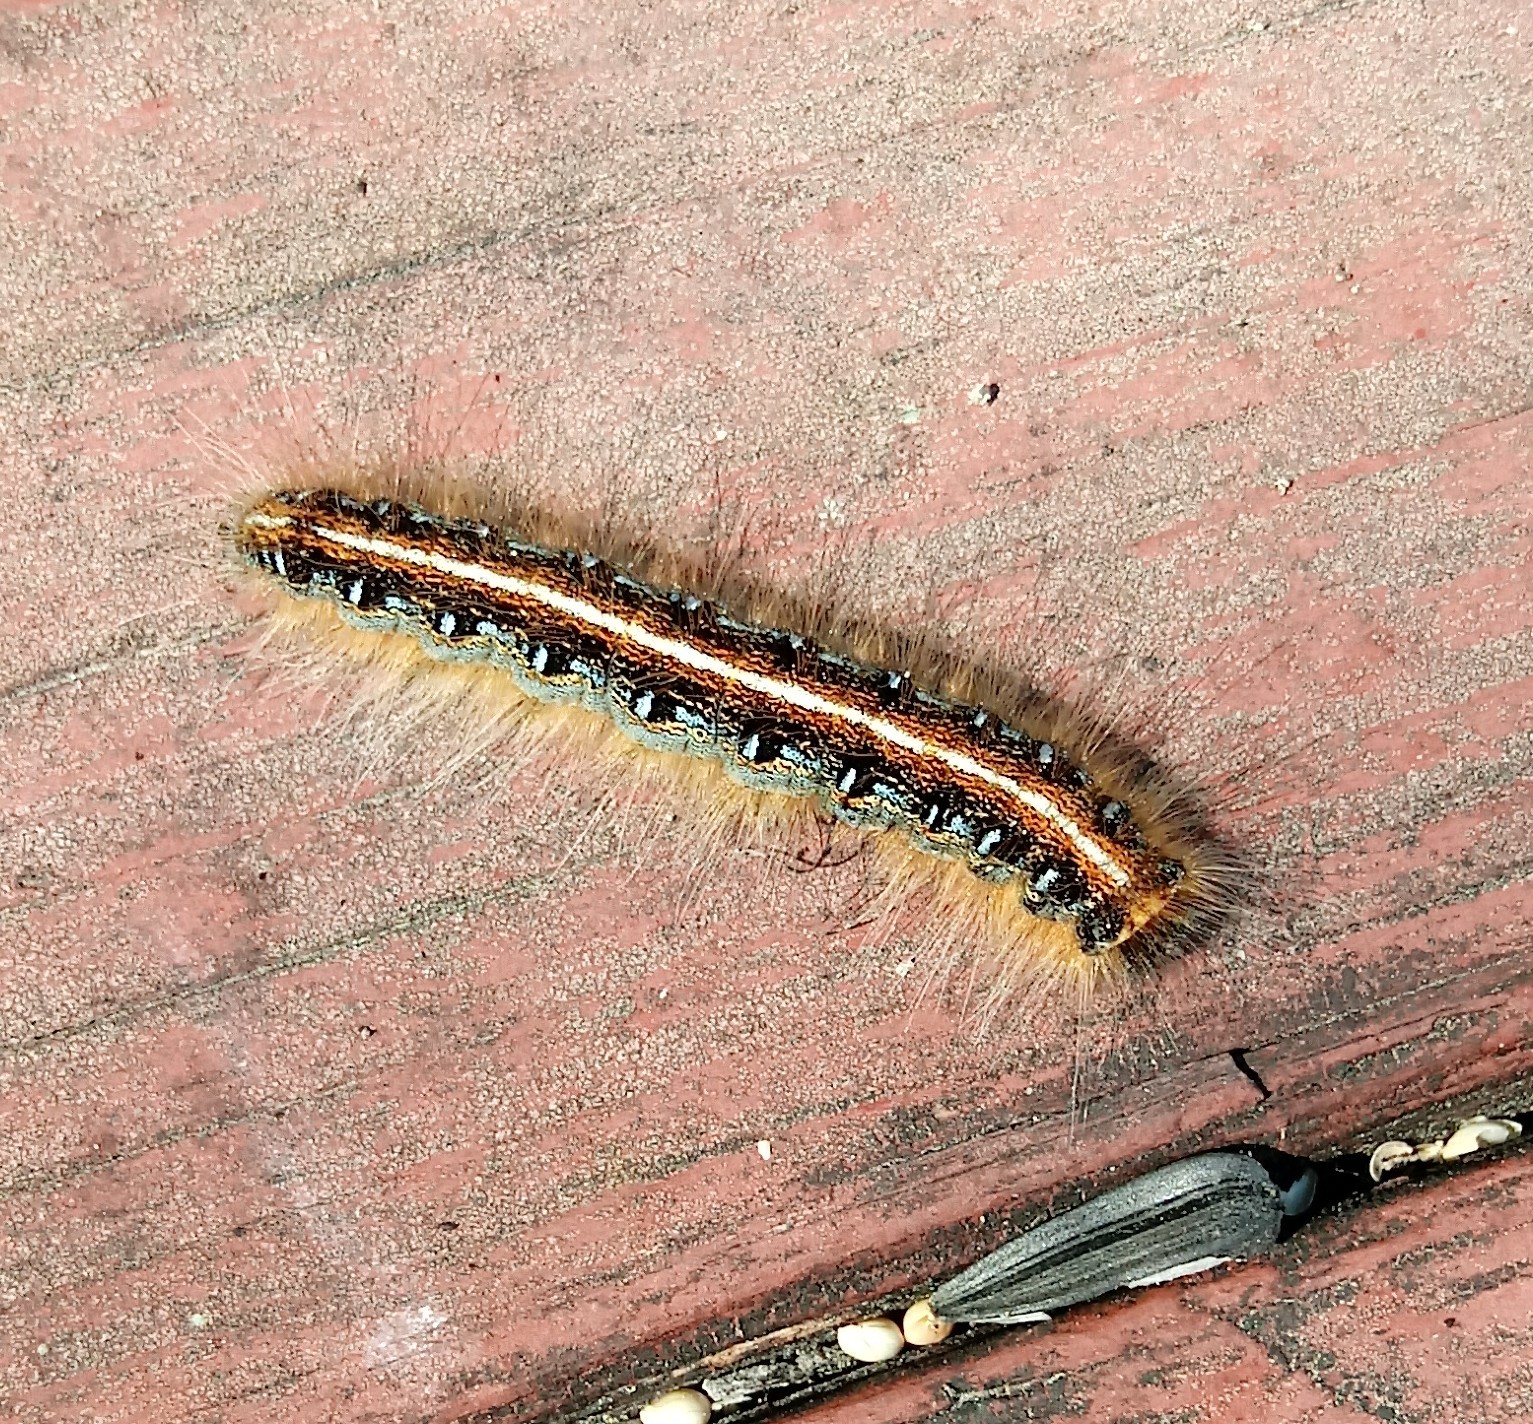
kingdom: Animalia
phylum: Arthropoda
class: Insecta
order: Lepidoptera
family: Lasiocampidae
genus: Malacosoma
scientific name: Malacosoma americana
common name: Eastern tent caterpillar moth
